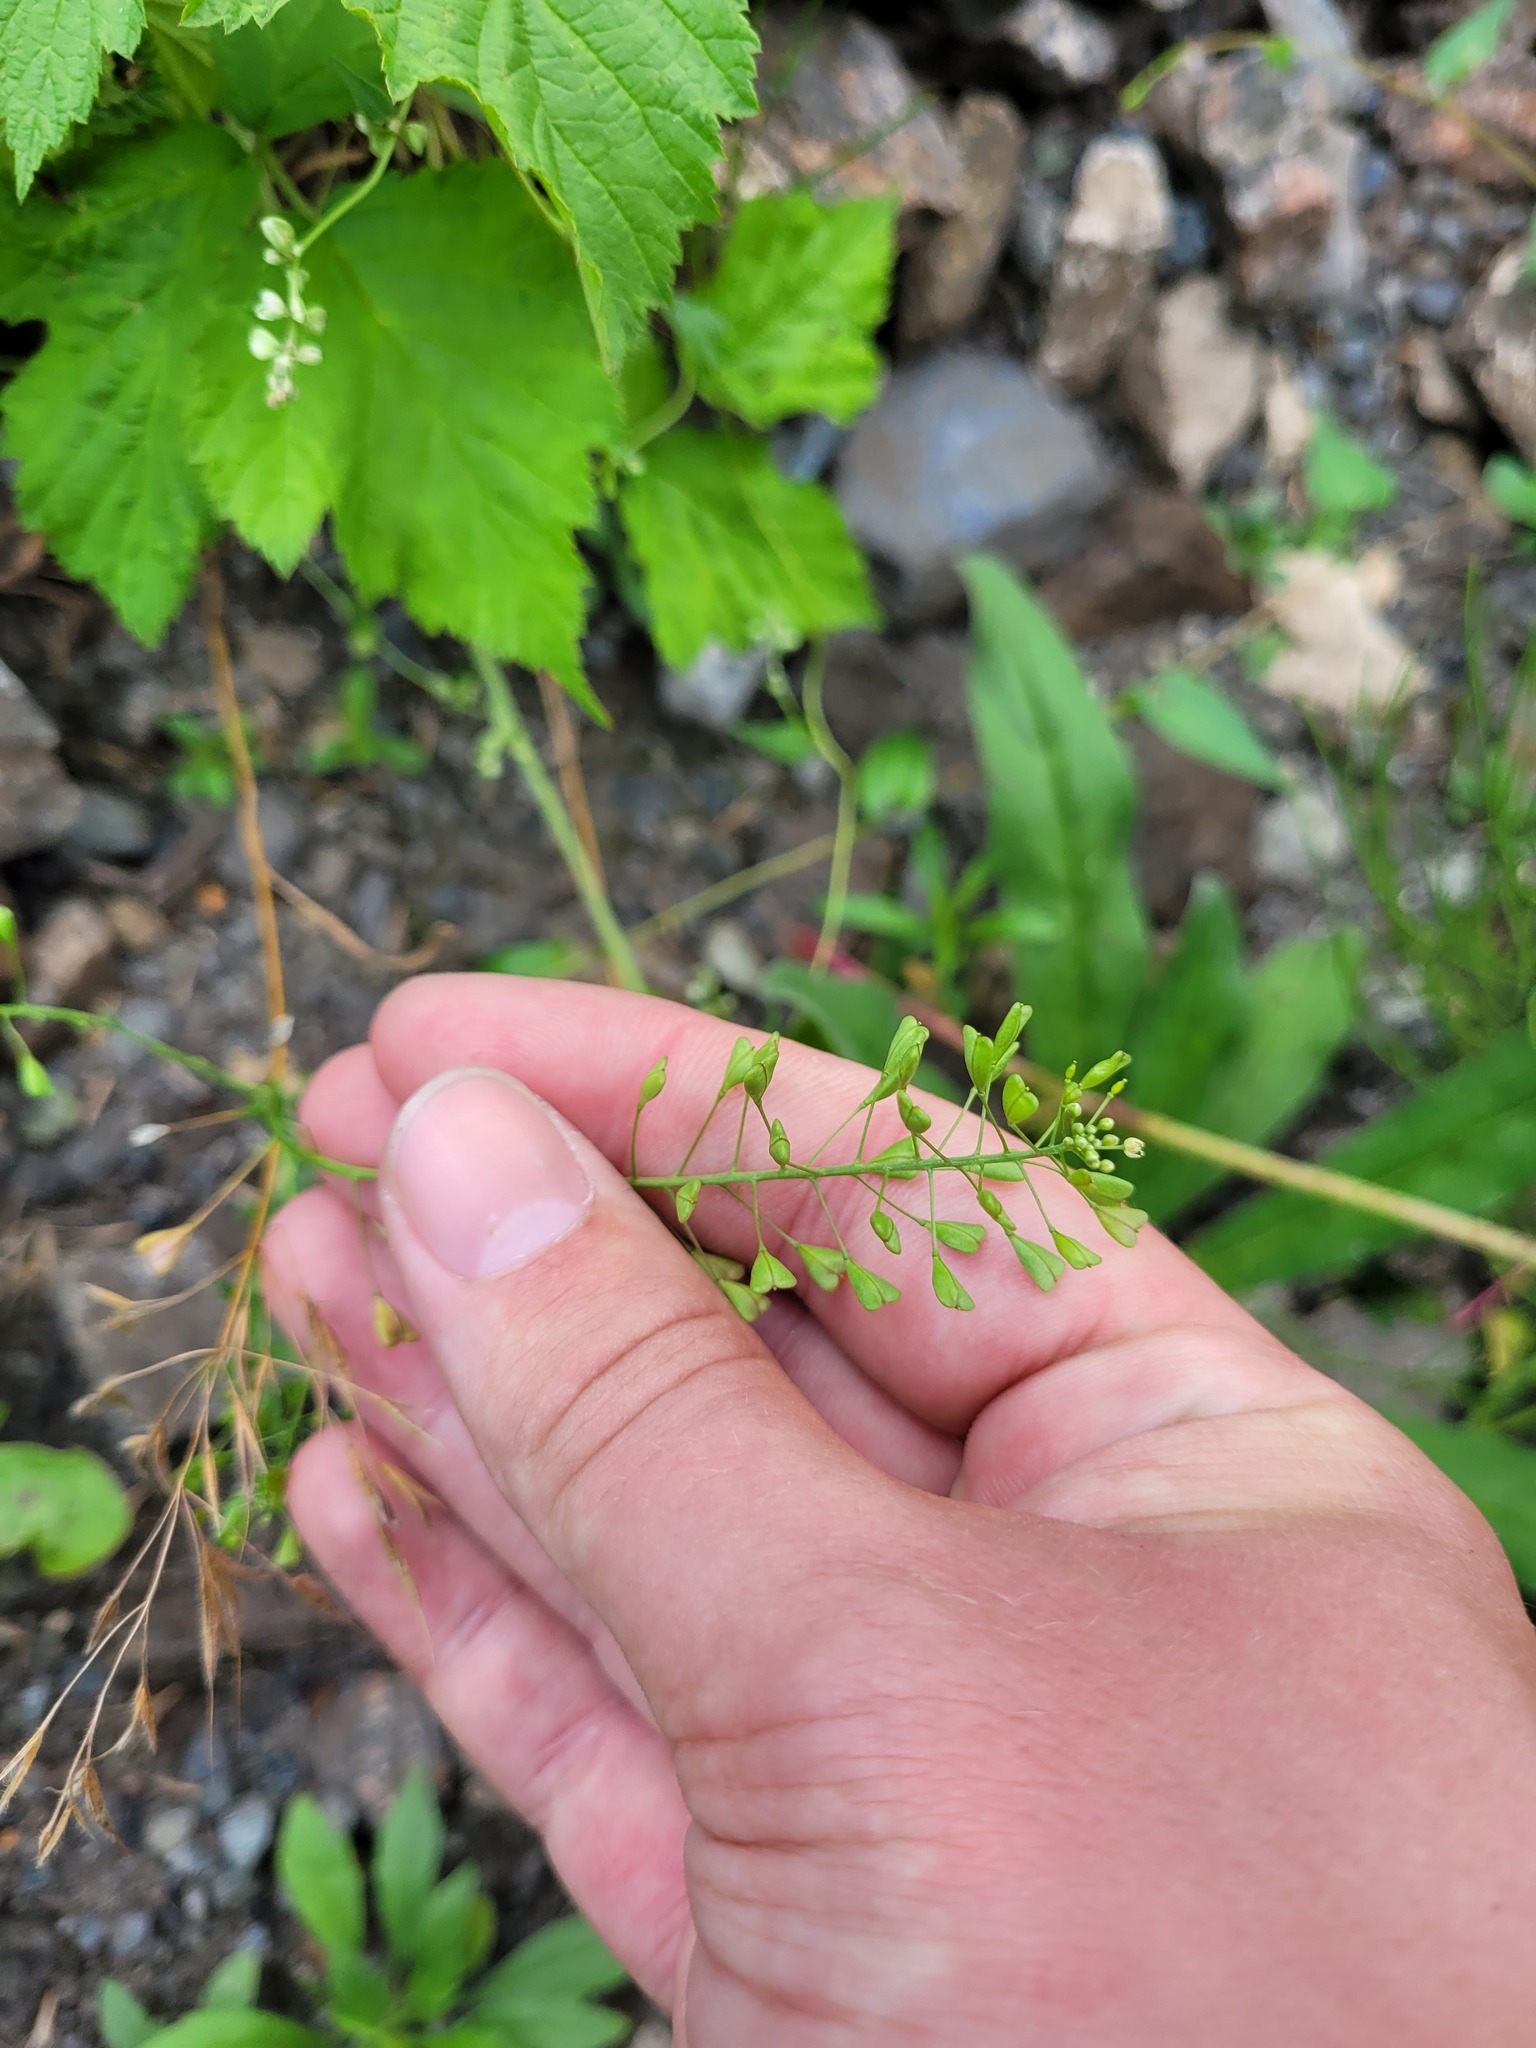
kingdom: Plantae
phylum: Tracheophyta
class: Magnoliopsida
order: Brassicales
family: Brassicaceae
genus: Capsella
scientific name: Capsella bursa-pastoris
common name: Shepherd's purse
